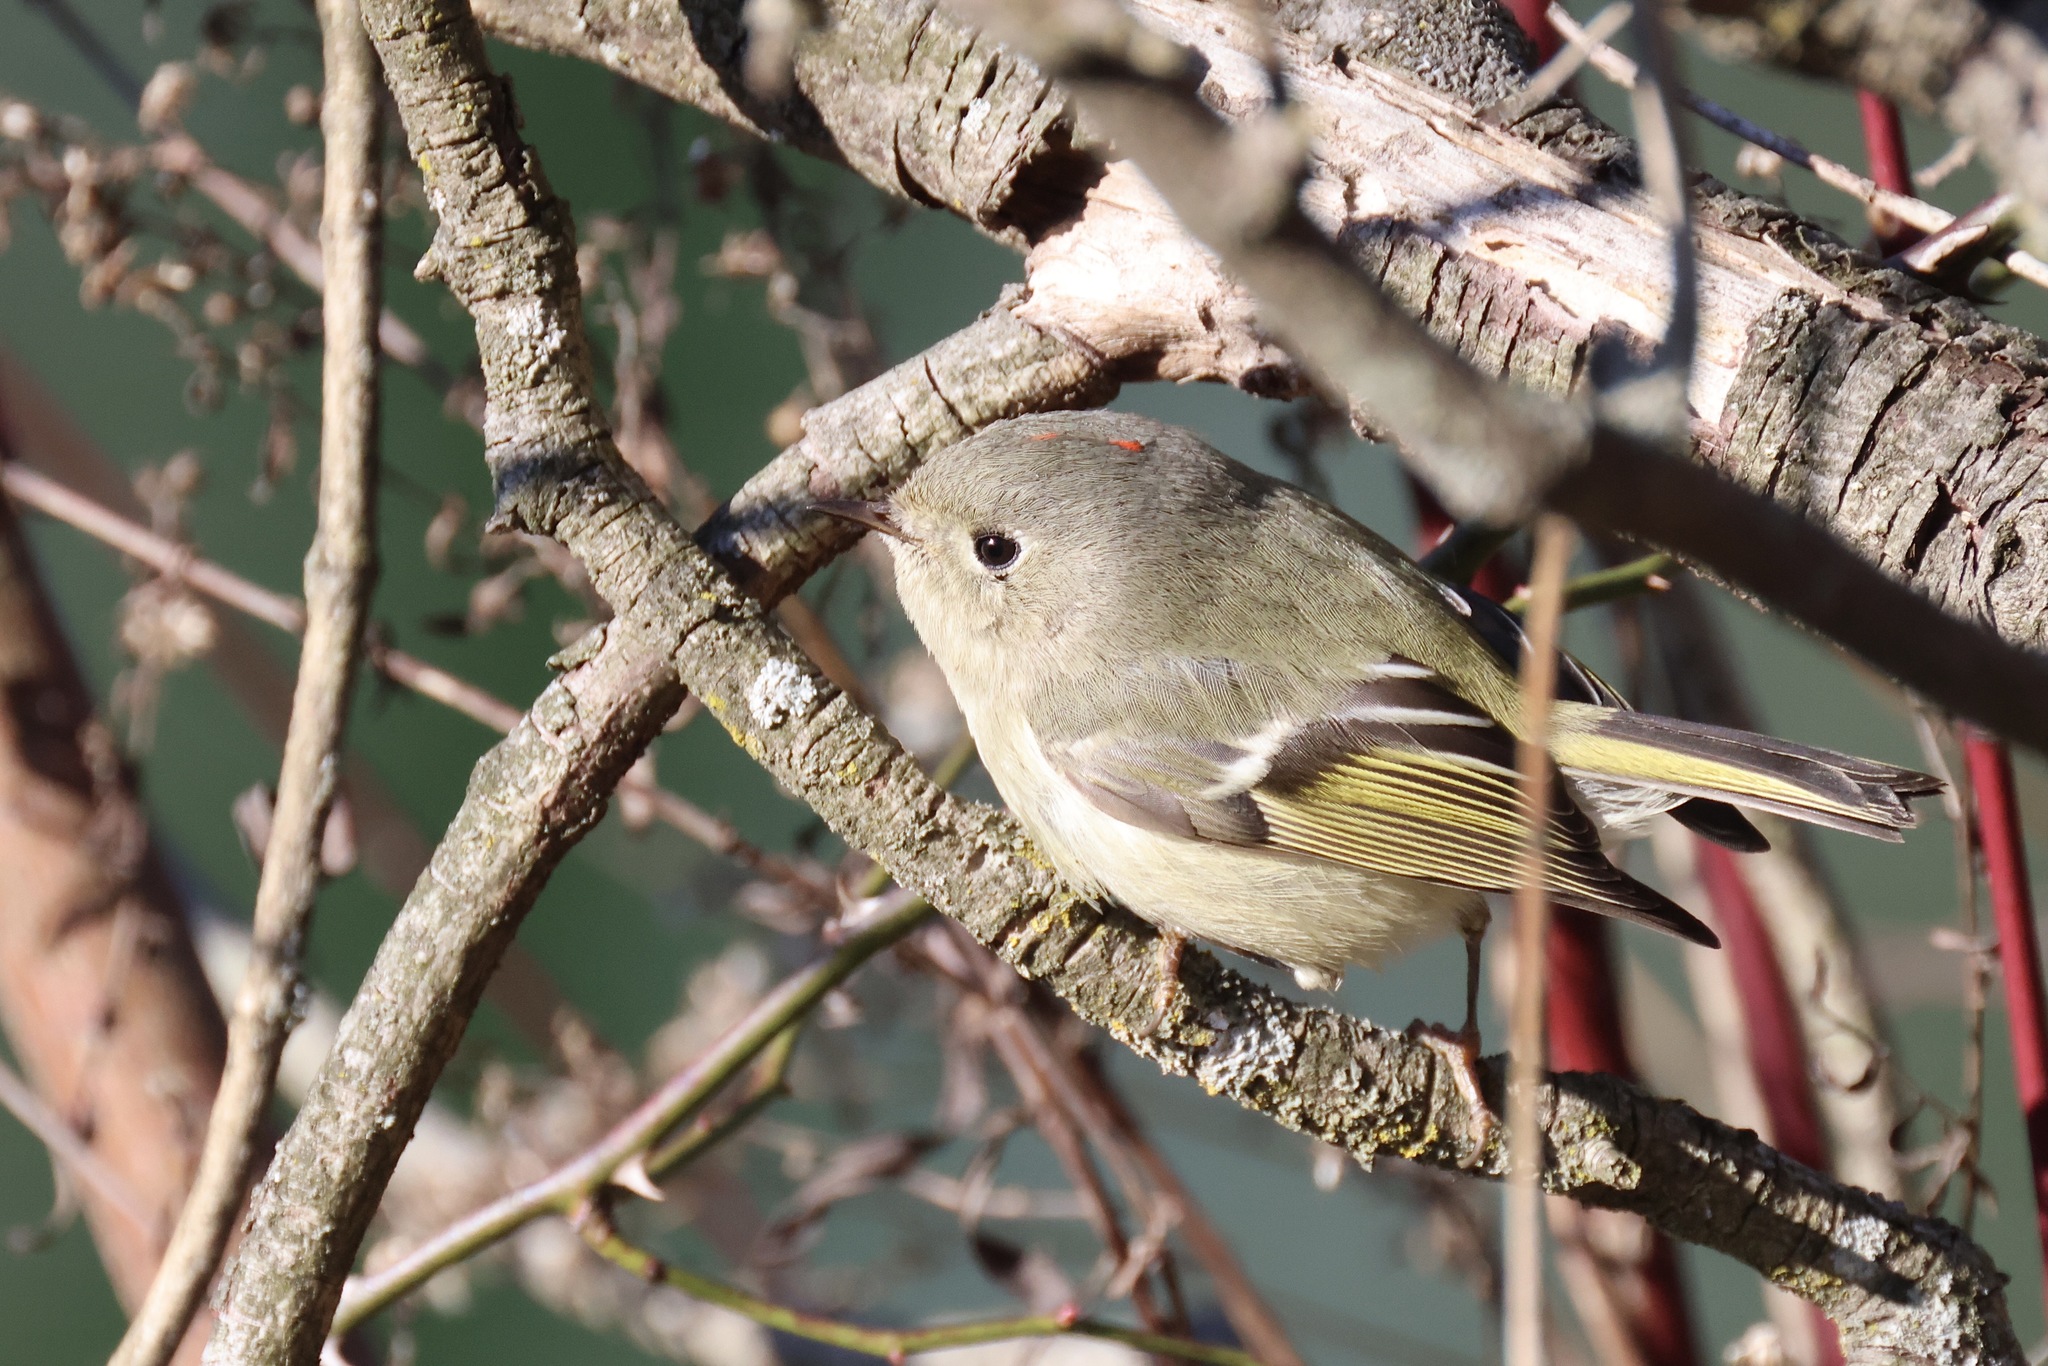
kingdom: Animalia
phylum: Chordata
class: Aves
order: Passeriformes
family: Regulidae
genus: Regulus
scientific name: Regulus calendula
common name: Ruby-crowned kinglet
